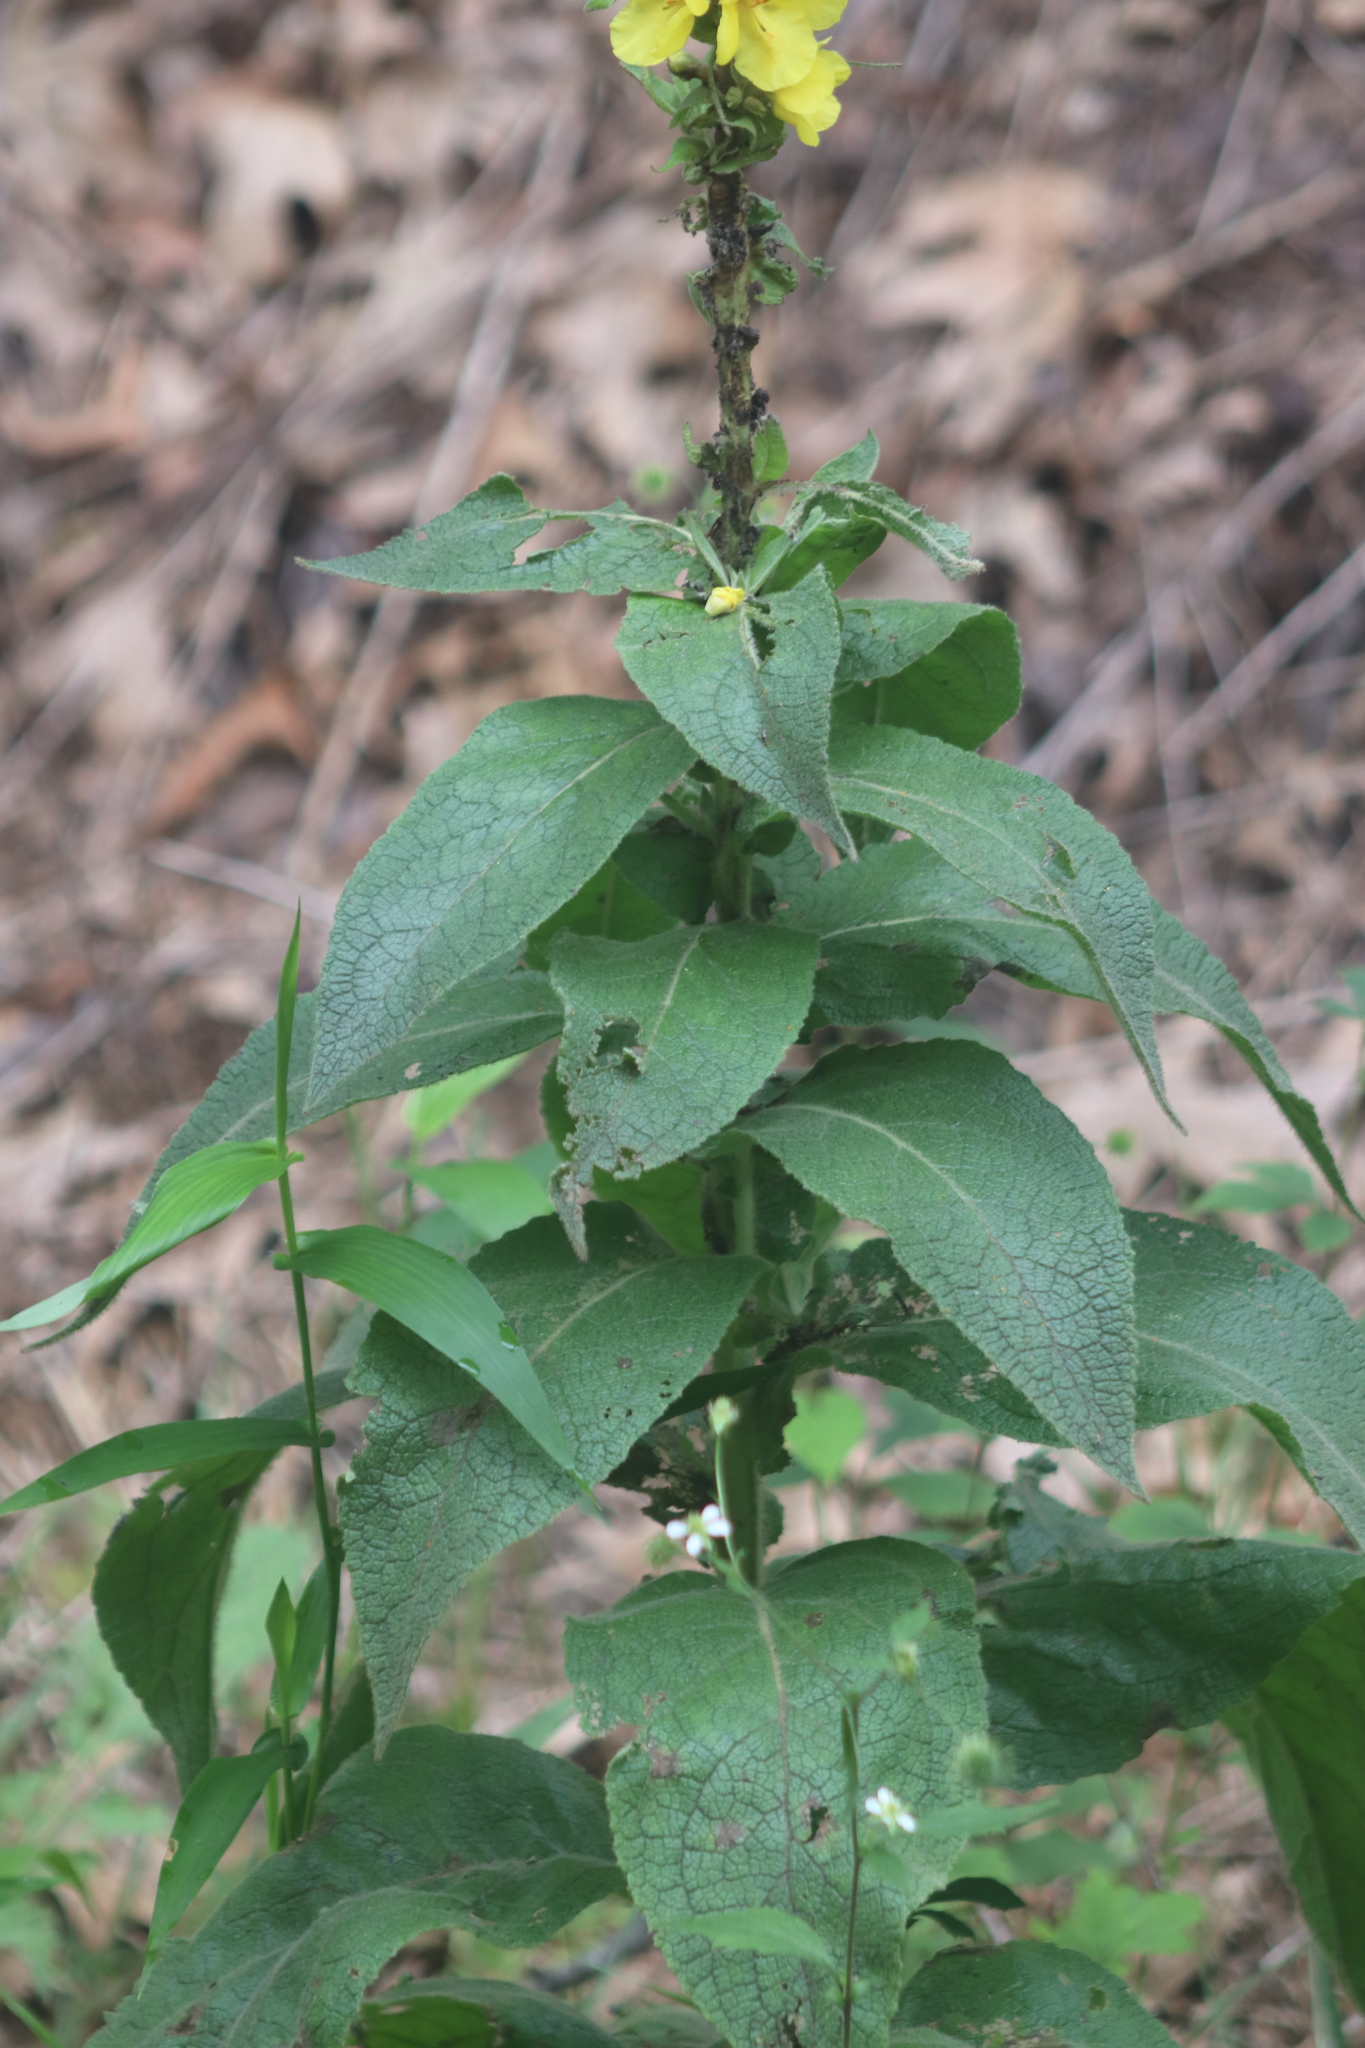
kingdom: Plantae
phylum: Tracheophyta
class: Magnoliopsida
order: Lamiales
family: Scrophulariaceae
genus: Verbascum
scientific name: Verbascum phlomoides
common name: Orange mullein
